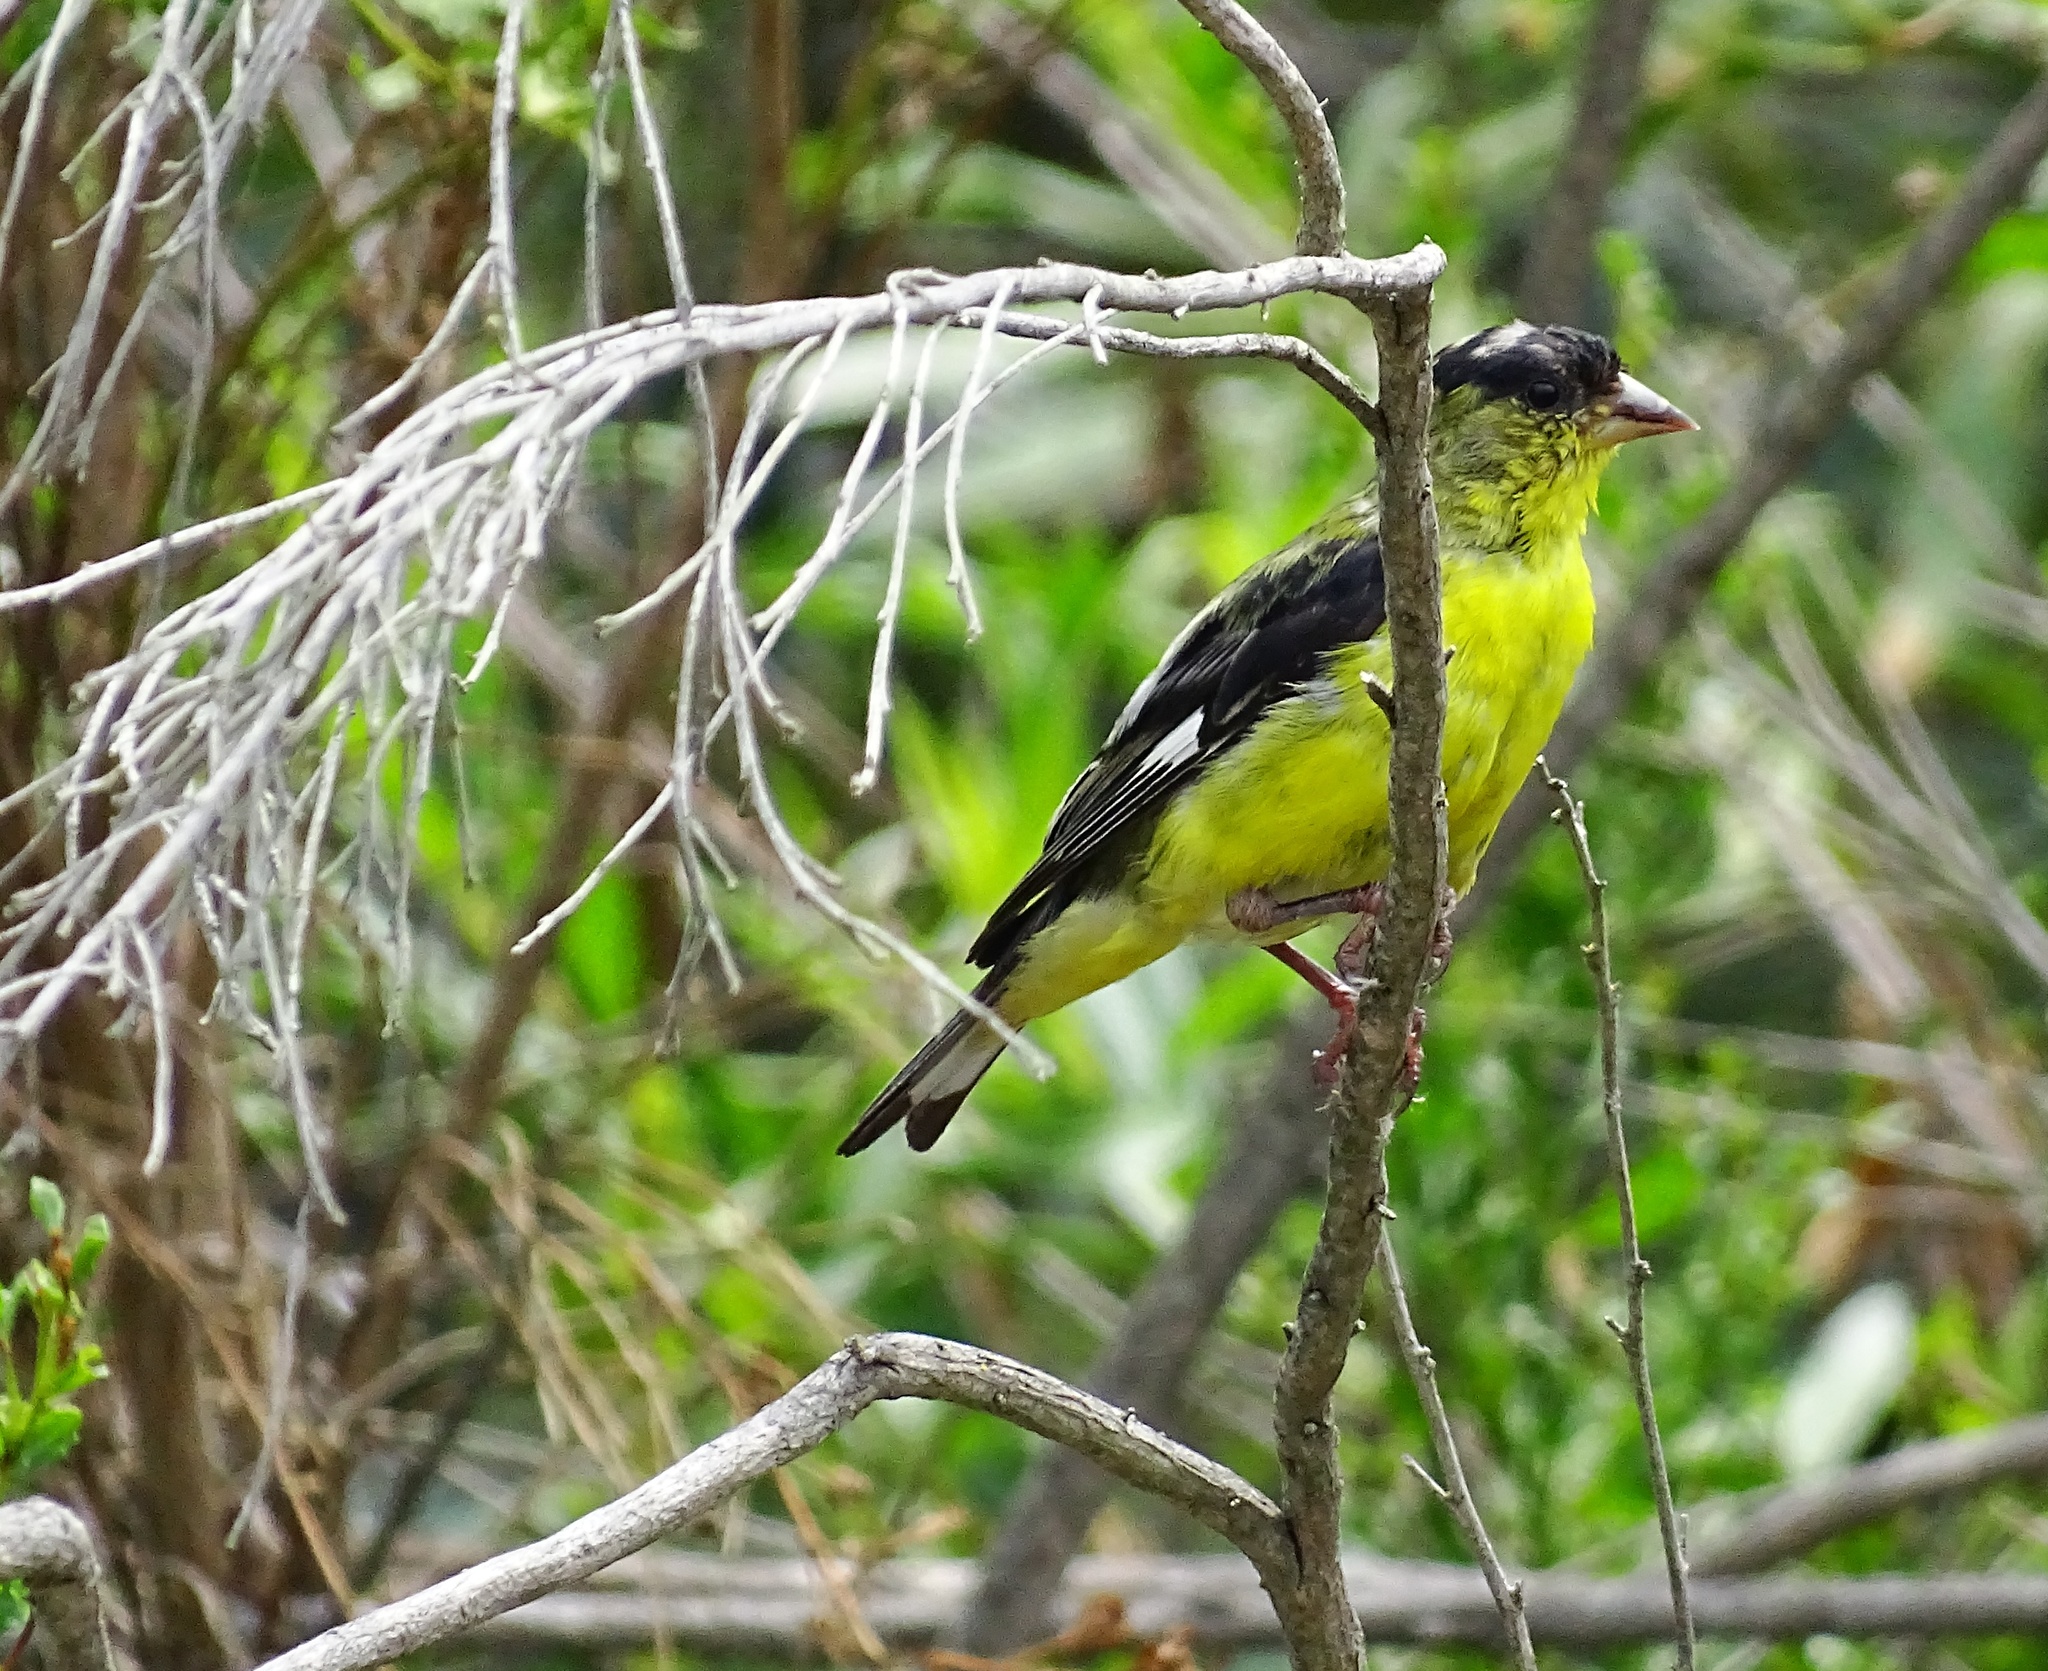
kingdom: Animalia
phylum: Chordata
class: Aves
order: Passeriformes
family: Fringillidae
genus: Spinus
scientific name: Spinus psaltria
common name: Lesser goldfinch
